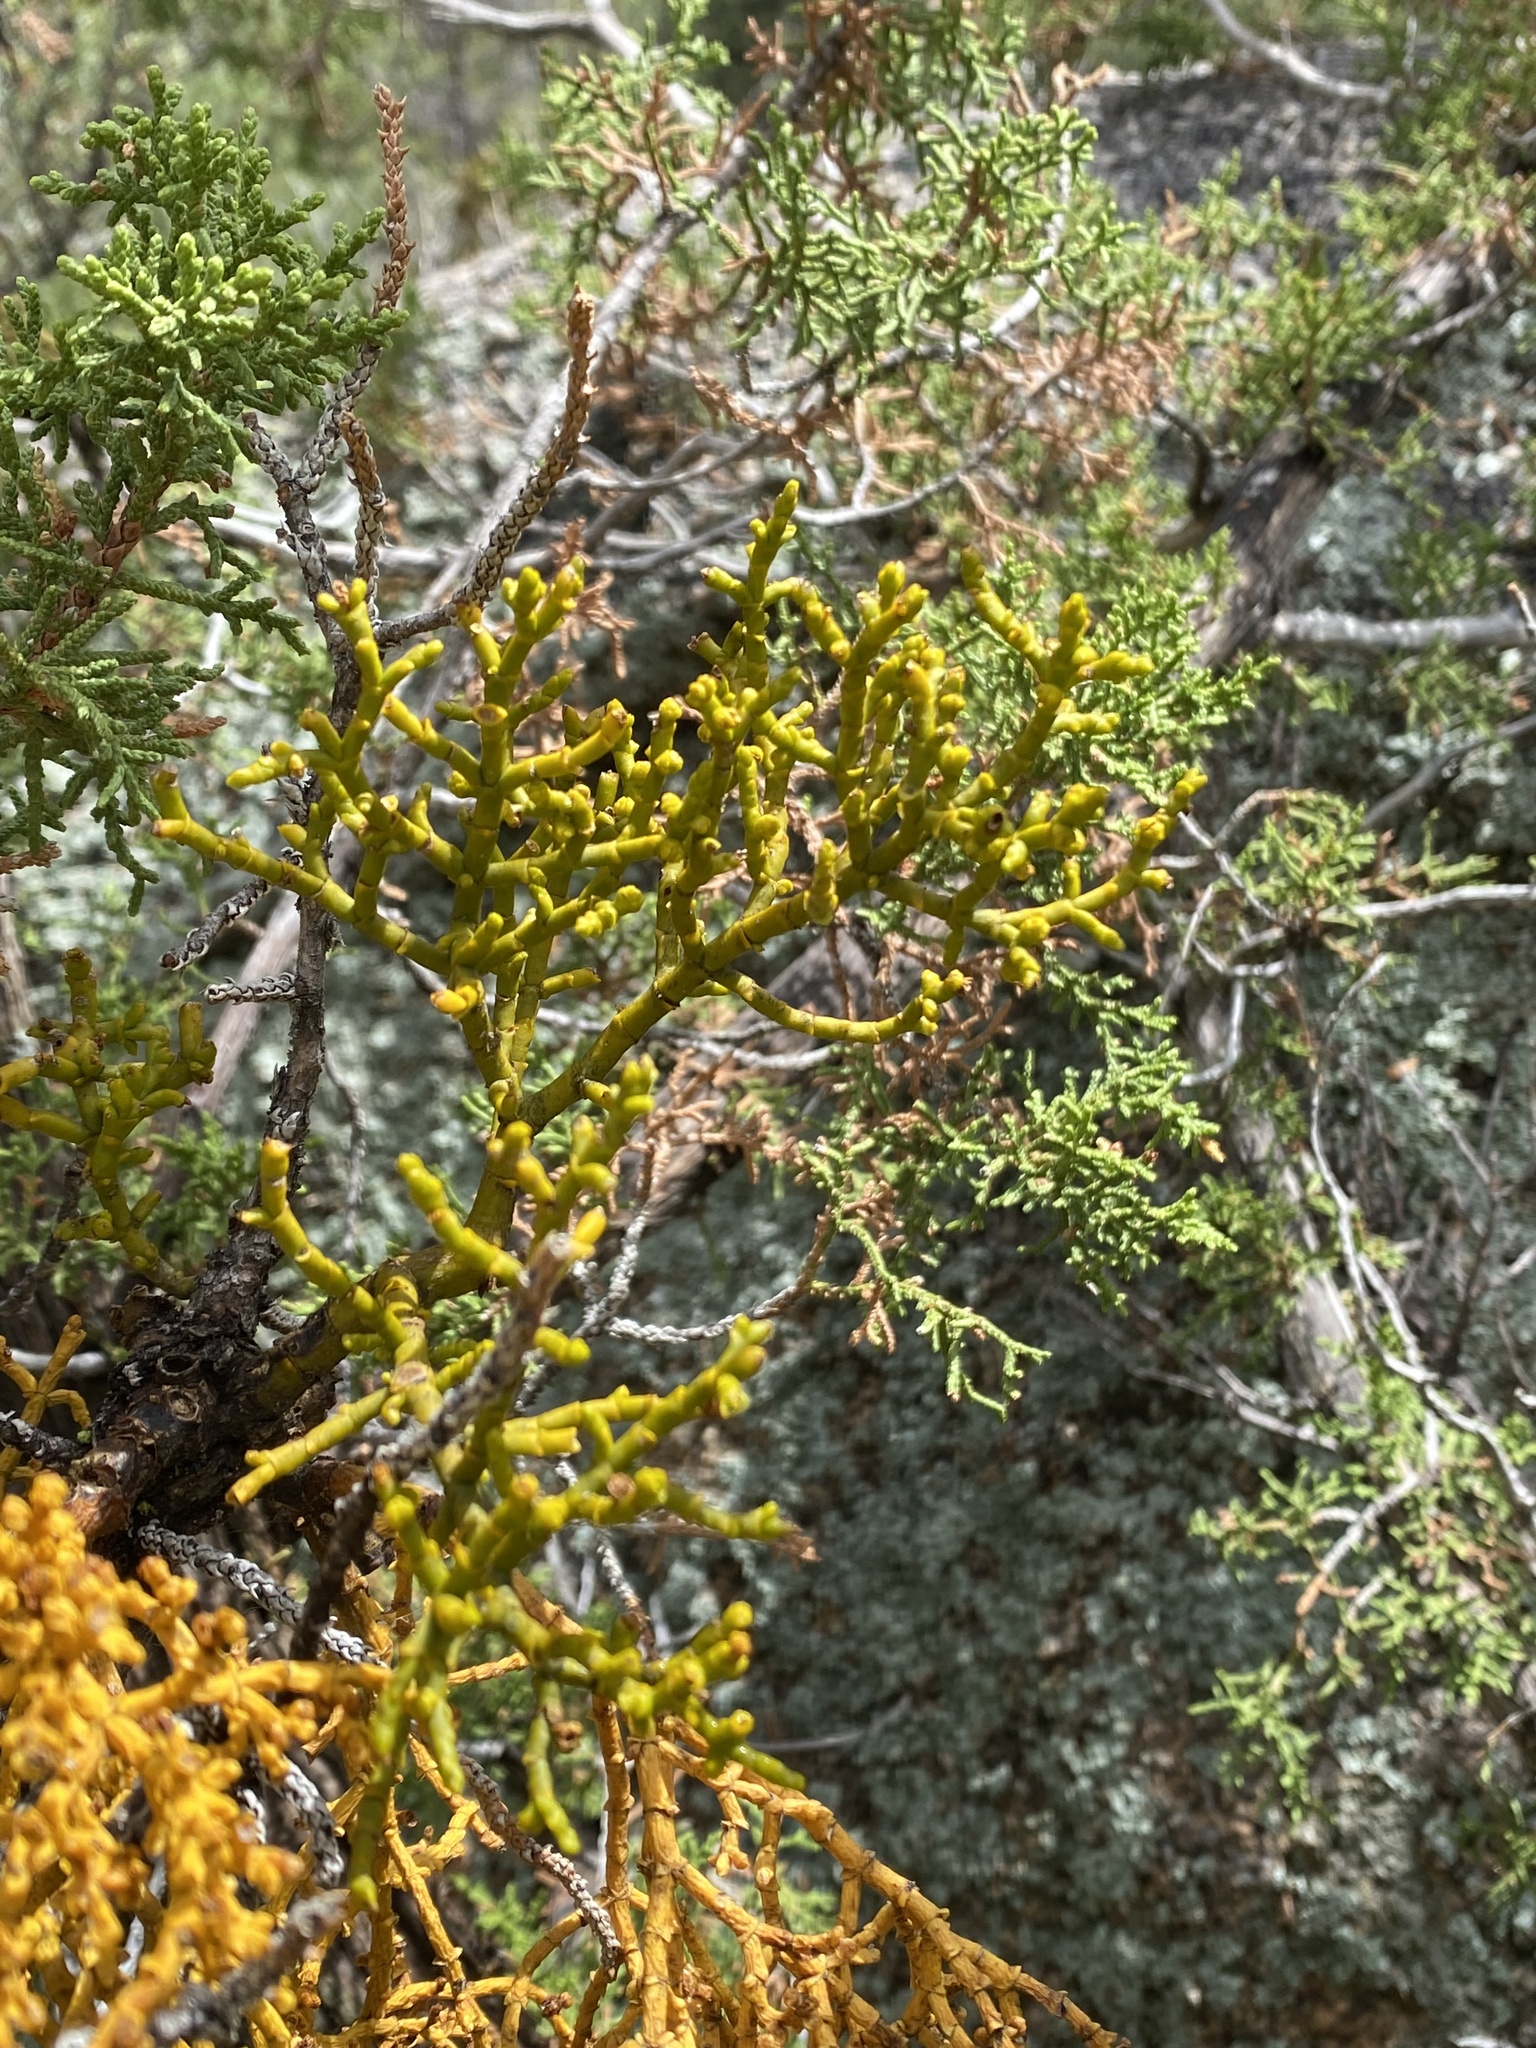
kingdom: Plantae
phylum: Tracheophyta
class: Magnoliopsida
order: Santalales
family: Viscaceae
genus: Phoradendron
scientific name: Phoradendron juniperinum
